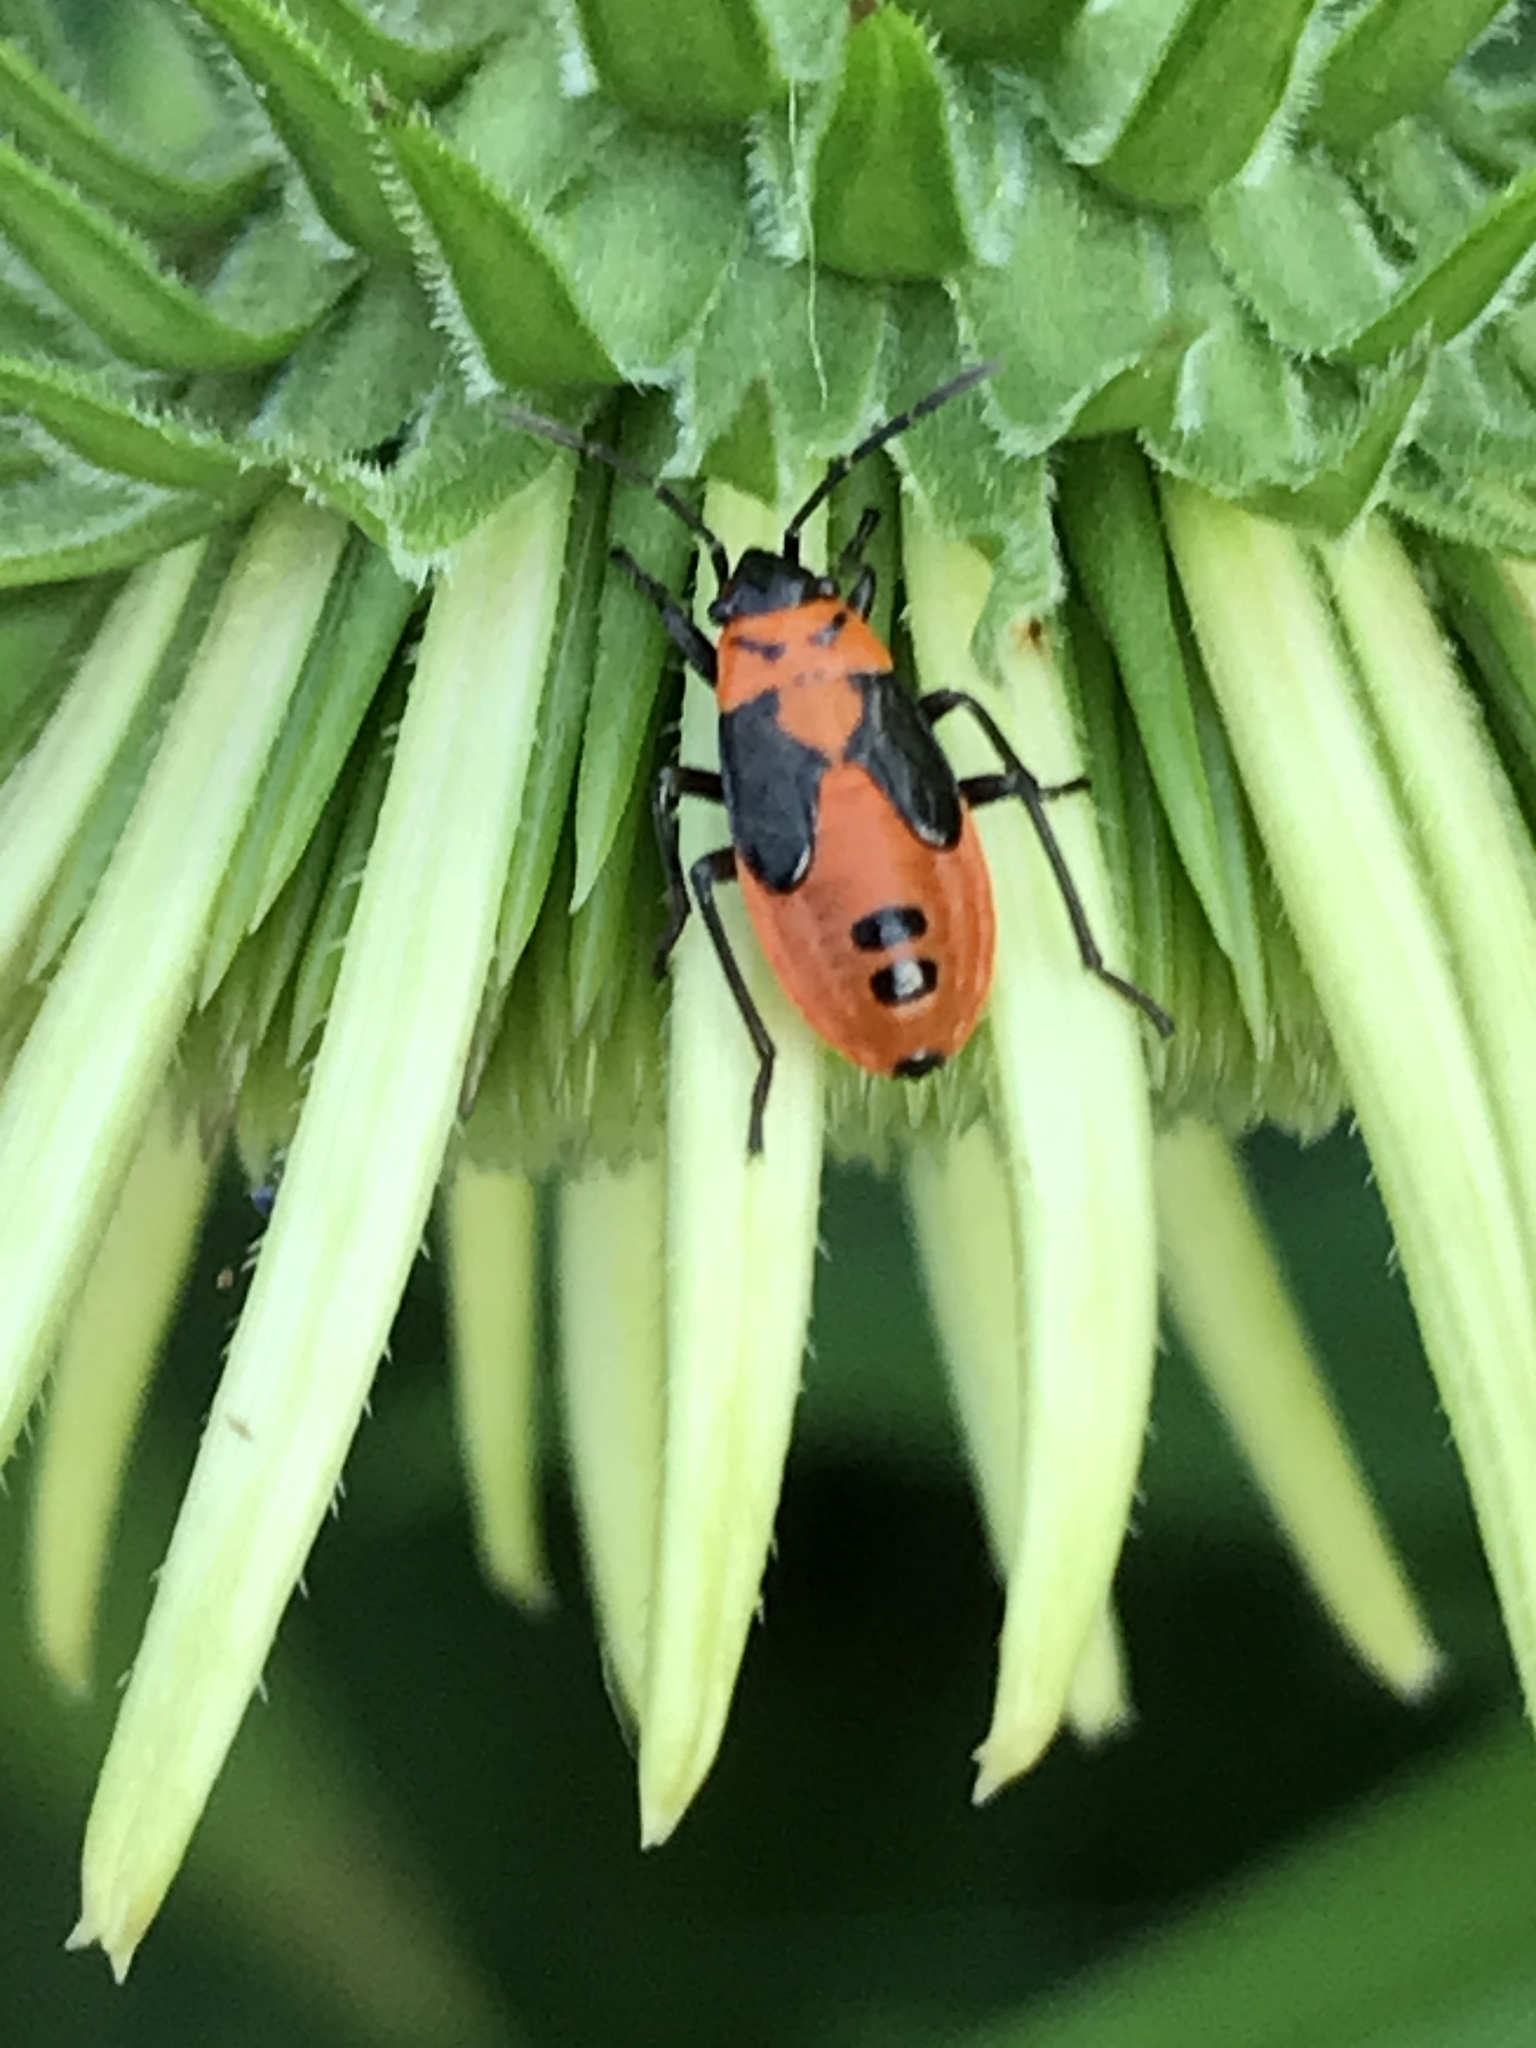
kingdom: Animalia
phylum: Arthropoda
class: Insecta
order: Hemiptera
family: Lygaeidae
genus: Lygaeus
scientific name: Lygaeus turcicus
